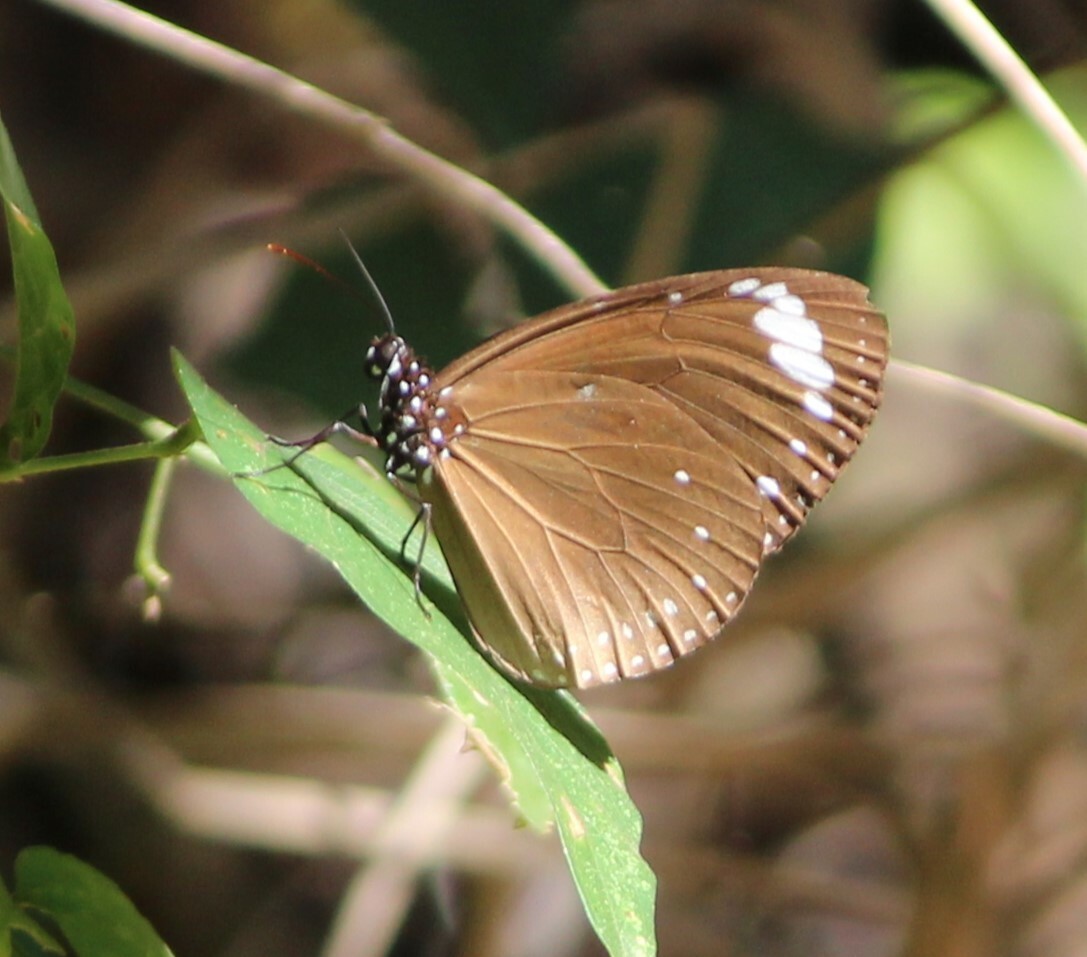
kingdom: Animalia
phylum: Arthropoda
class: Insecta
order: Lepidoptera
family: Nymphalidae
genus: Euploea
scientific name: Euploea tulliolus
